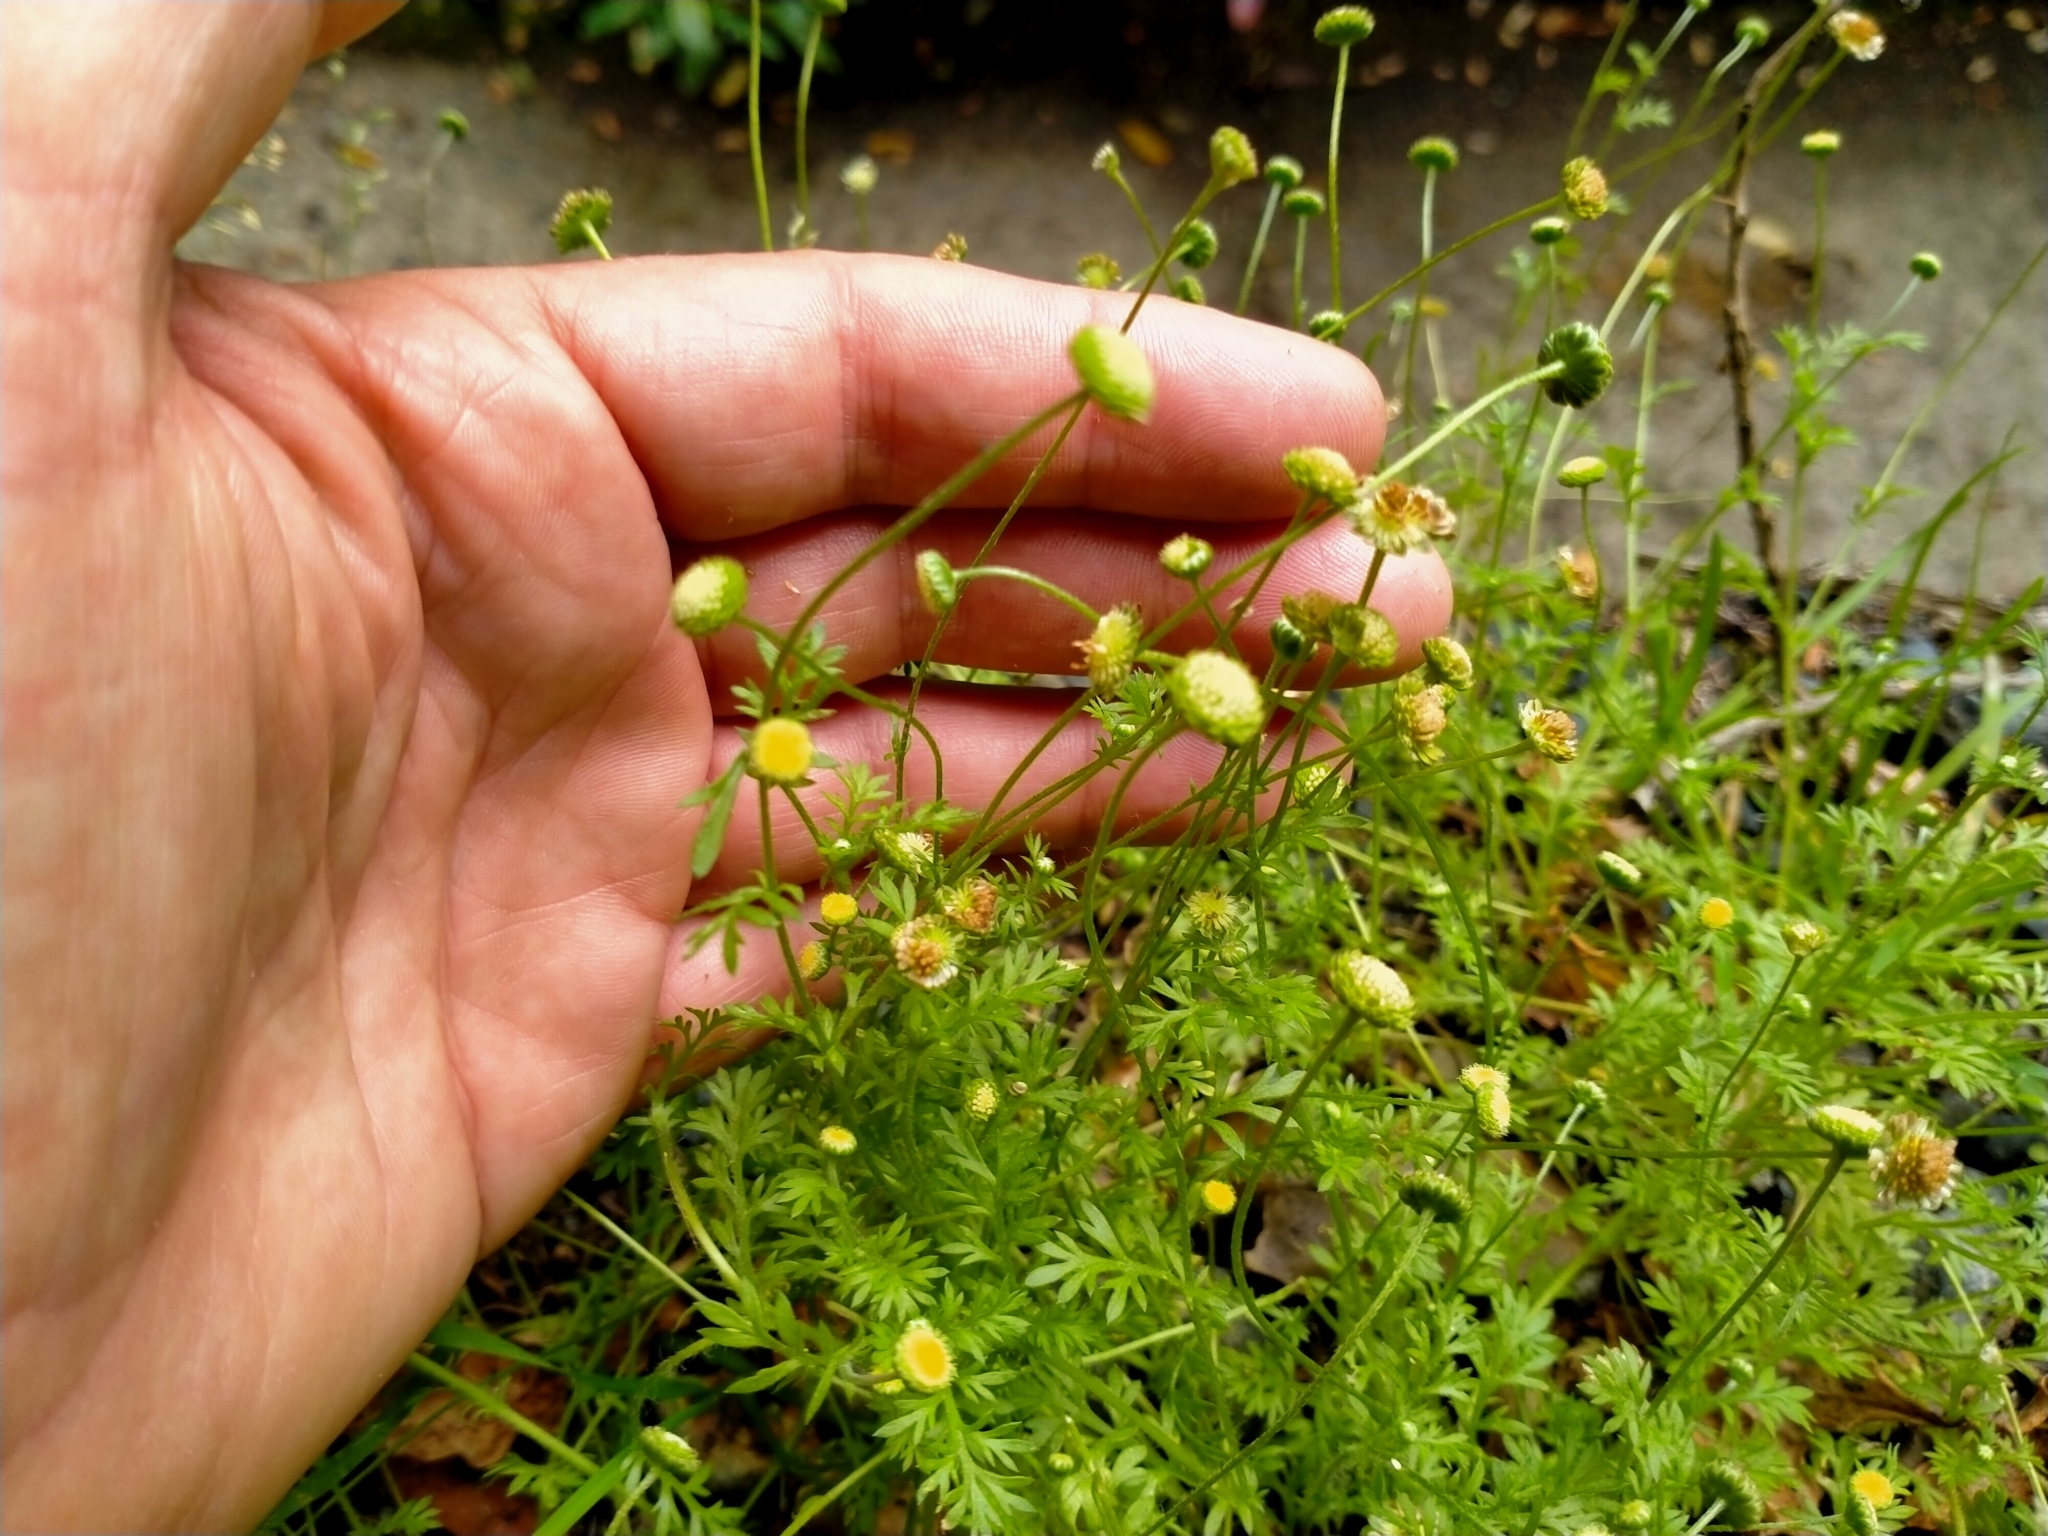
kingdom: Plantae
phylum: Tracheophyta
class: Magnoliopsida
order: Asterales
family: Asteraceae
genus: Cotula
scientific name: Cotula australis
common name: Australian waterbuttons
